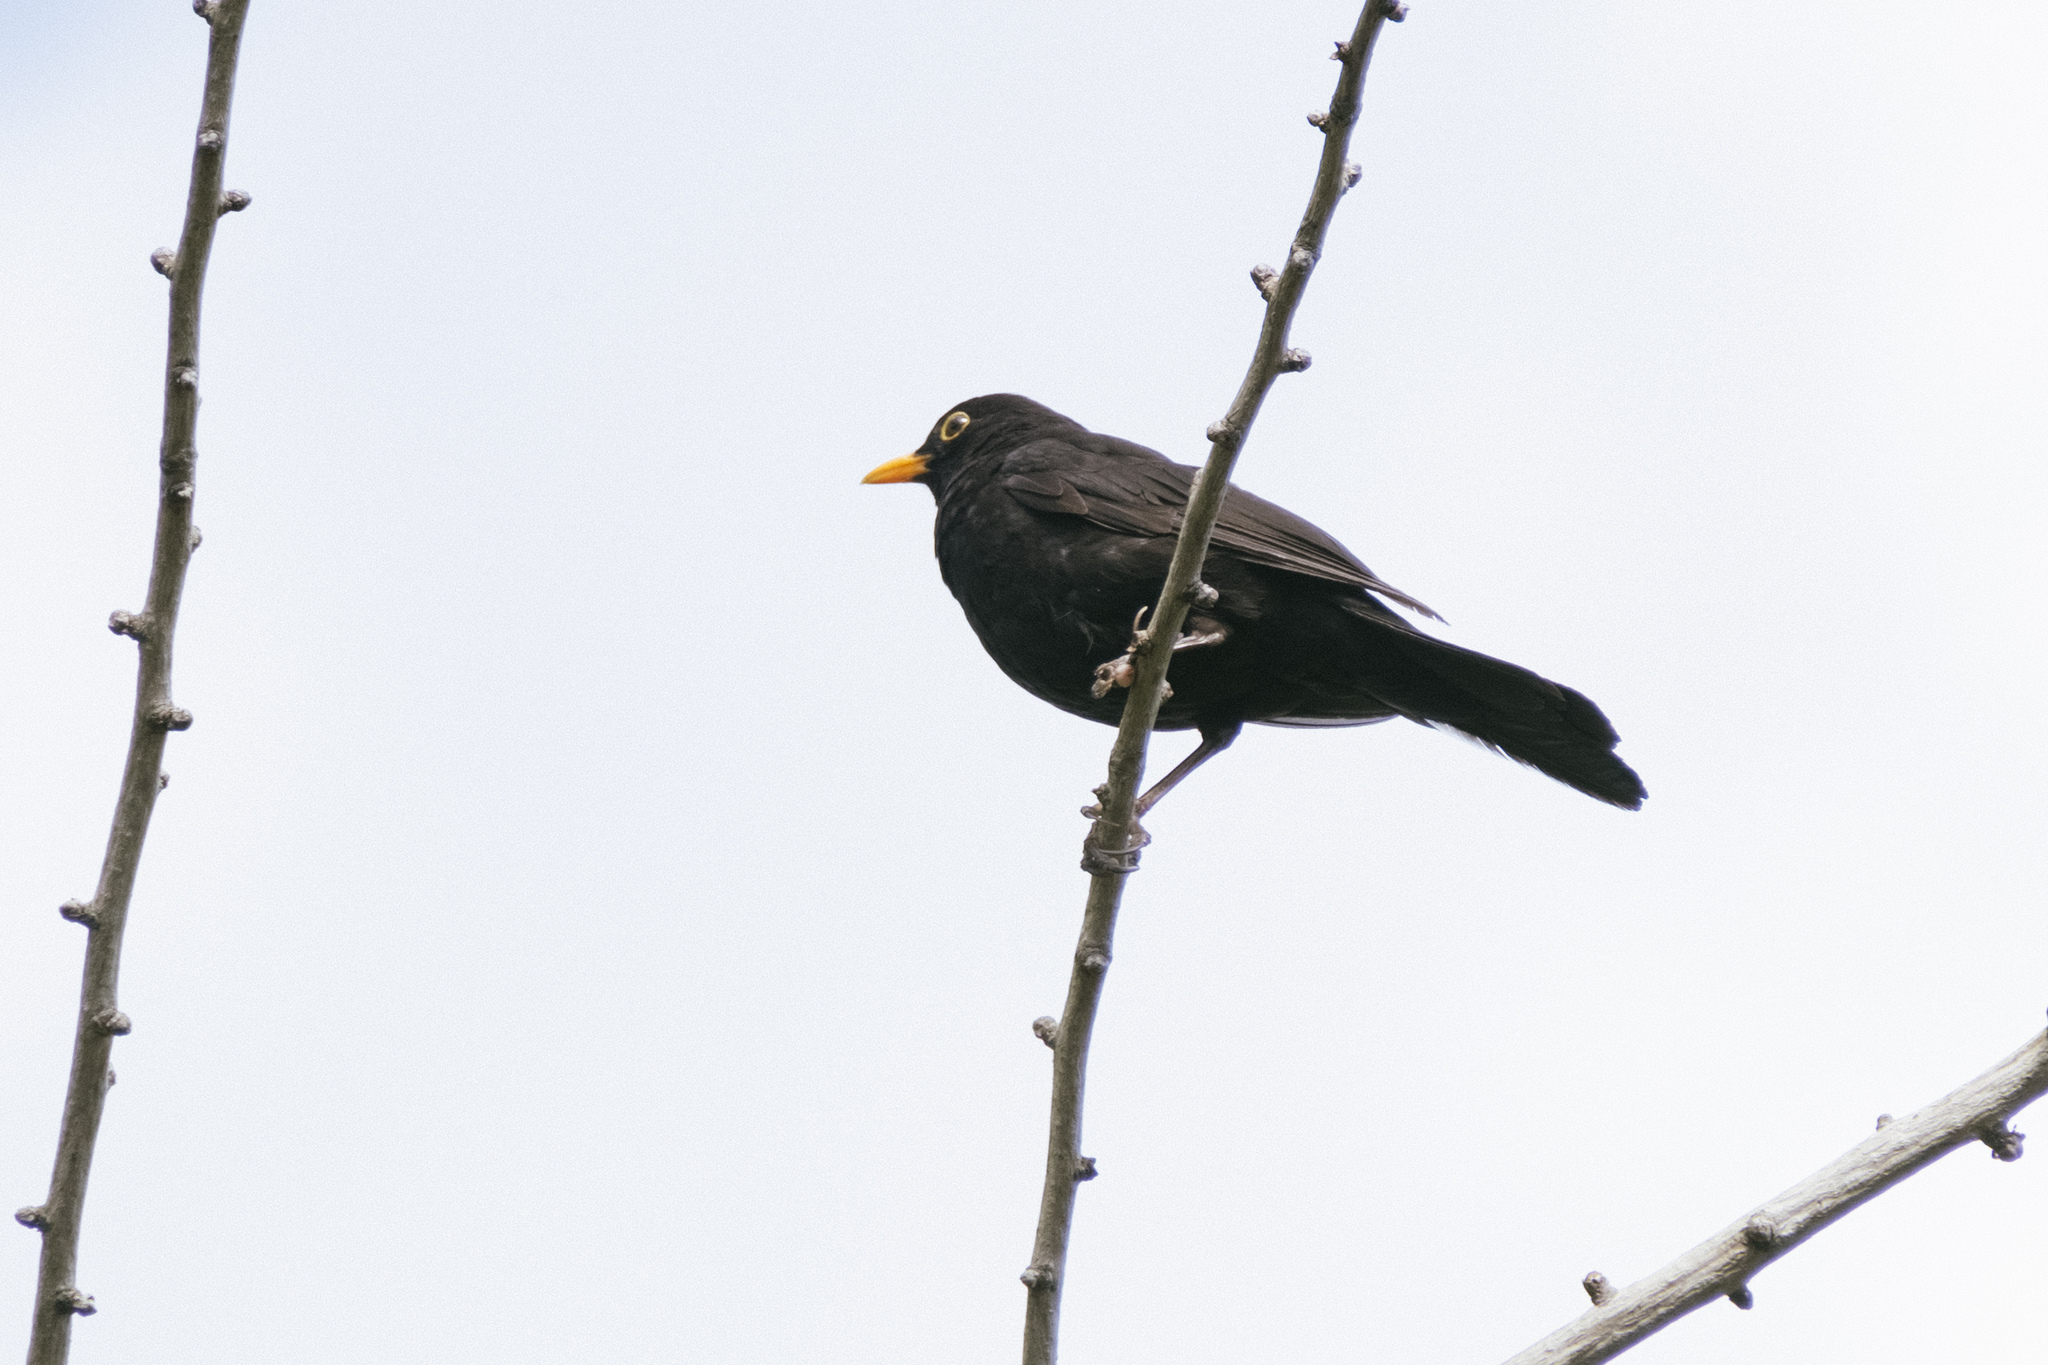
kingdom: Animalia
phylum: Chordata
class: Aves
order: Passeriformes
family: Turdidae
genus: Turdus
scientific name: Turdus merula
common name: Common blackbird
